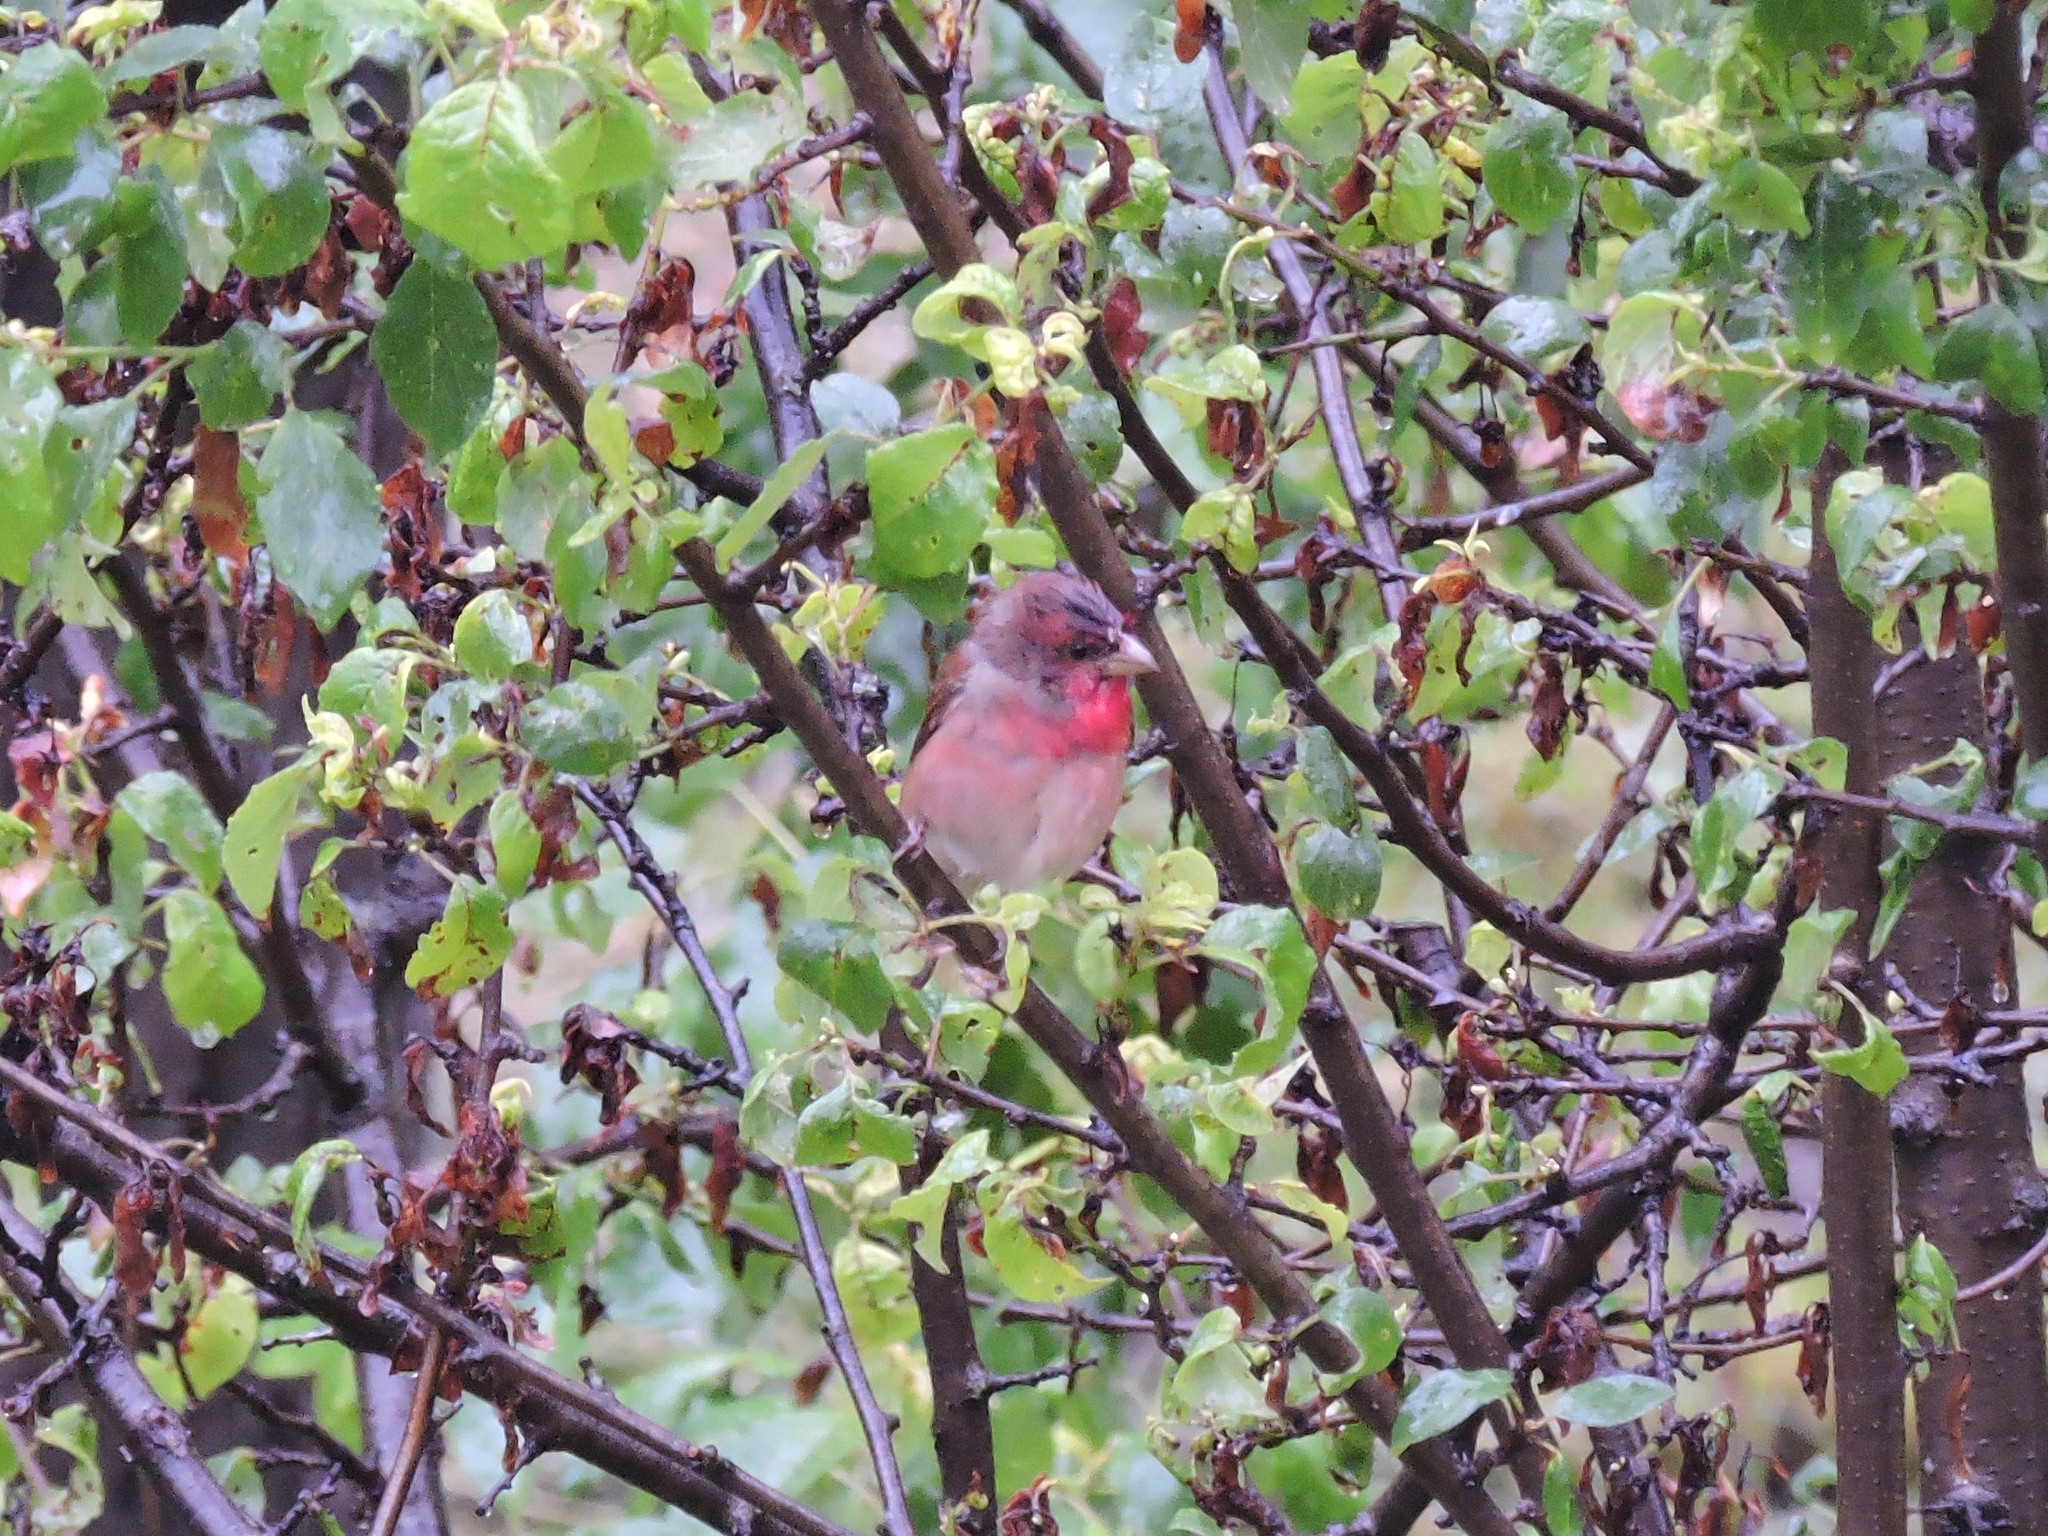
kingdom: Animalia
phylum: Chordata
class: Aves
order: Passeriformes
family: Fringillidae
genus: Carpodacus
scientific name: Carpodacus erythrinus
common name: Common rosefinch
